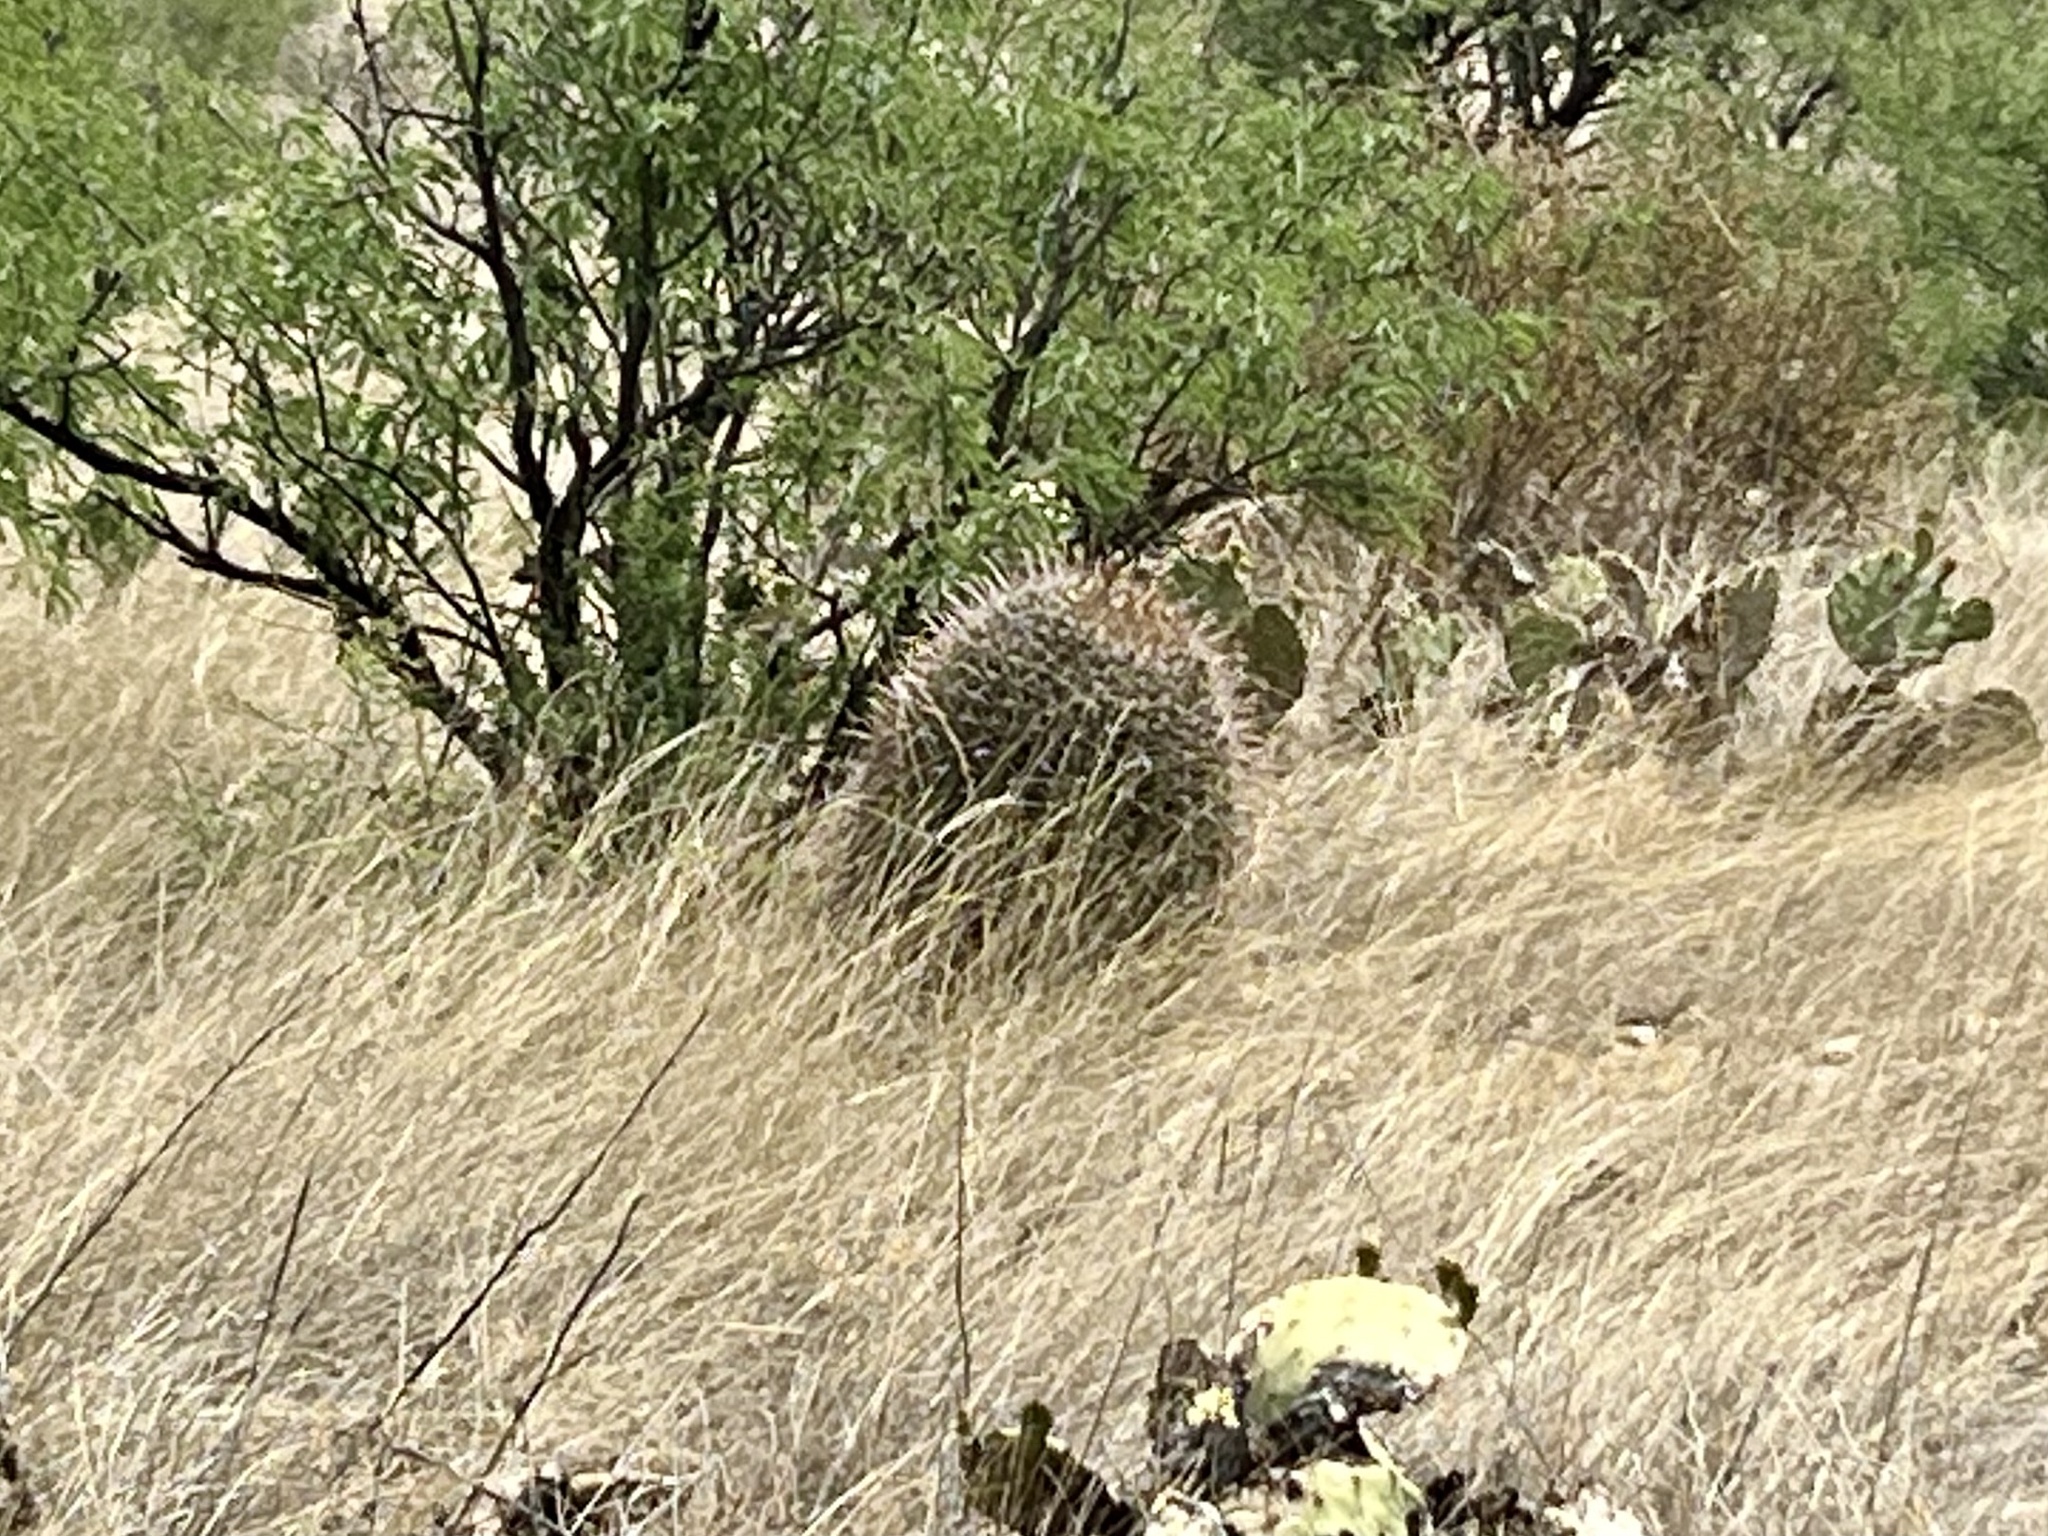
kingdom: Plantae
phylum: Tracheophyta
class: Magnoliopsida
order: Caryophyllales
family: Cactaceae
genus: Ferocactus
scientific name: Ferocactus wislizeni
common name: Candy barrel cactus
